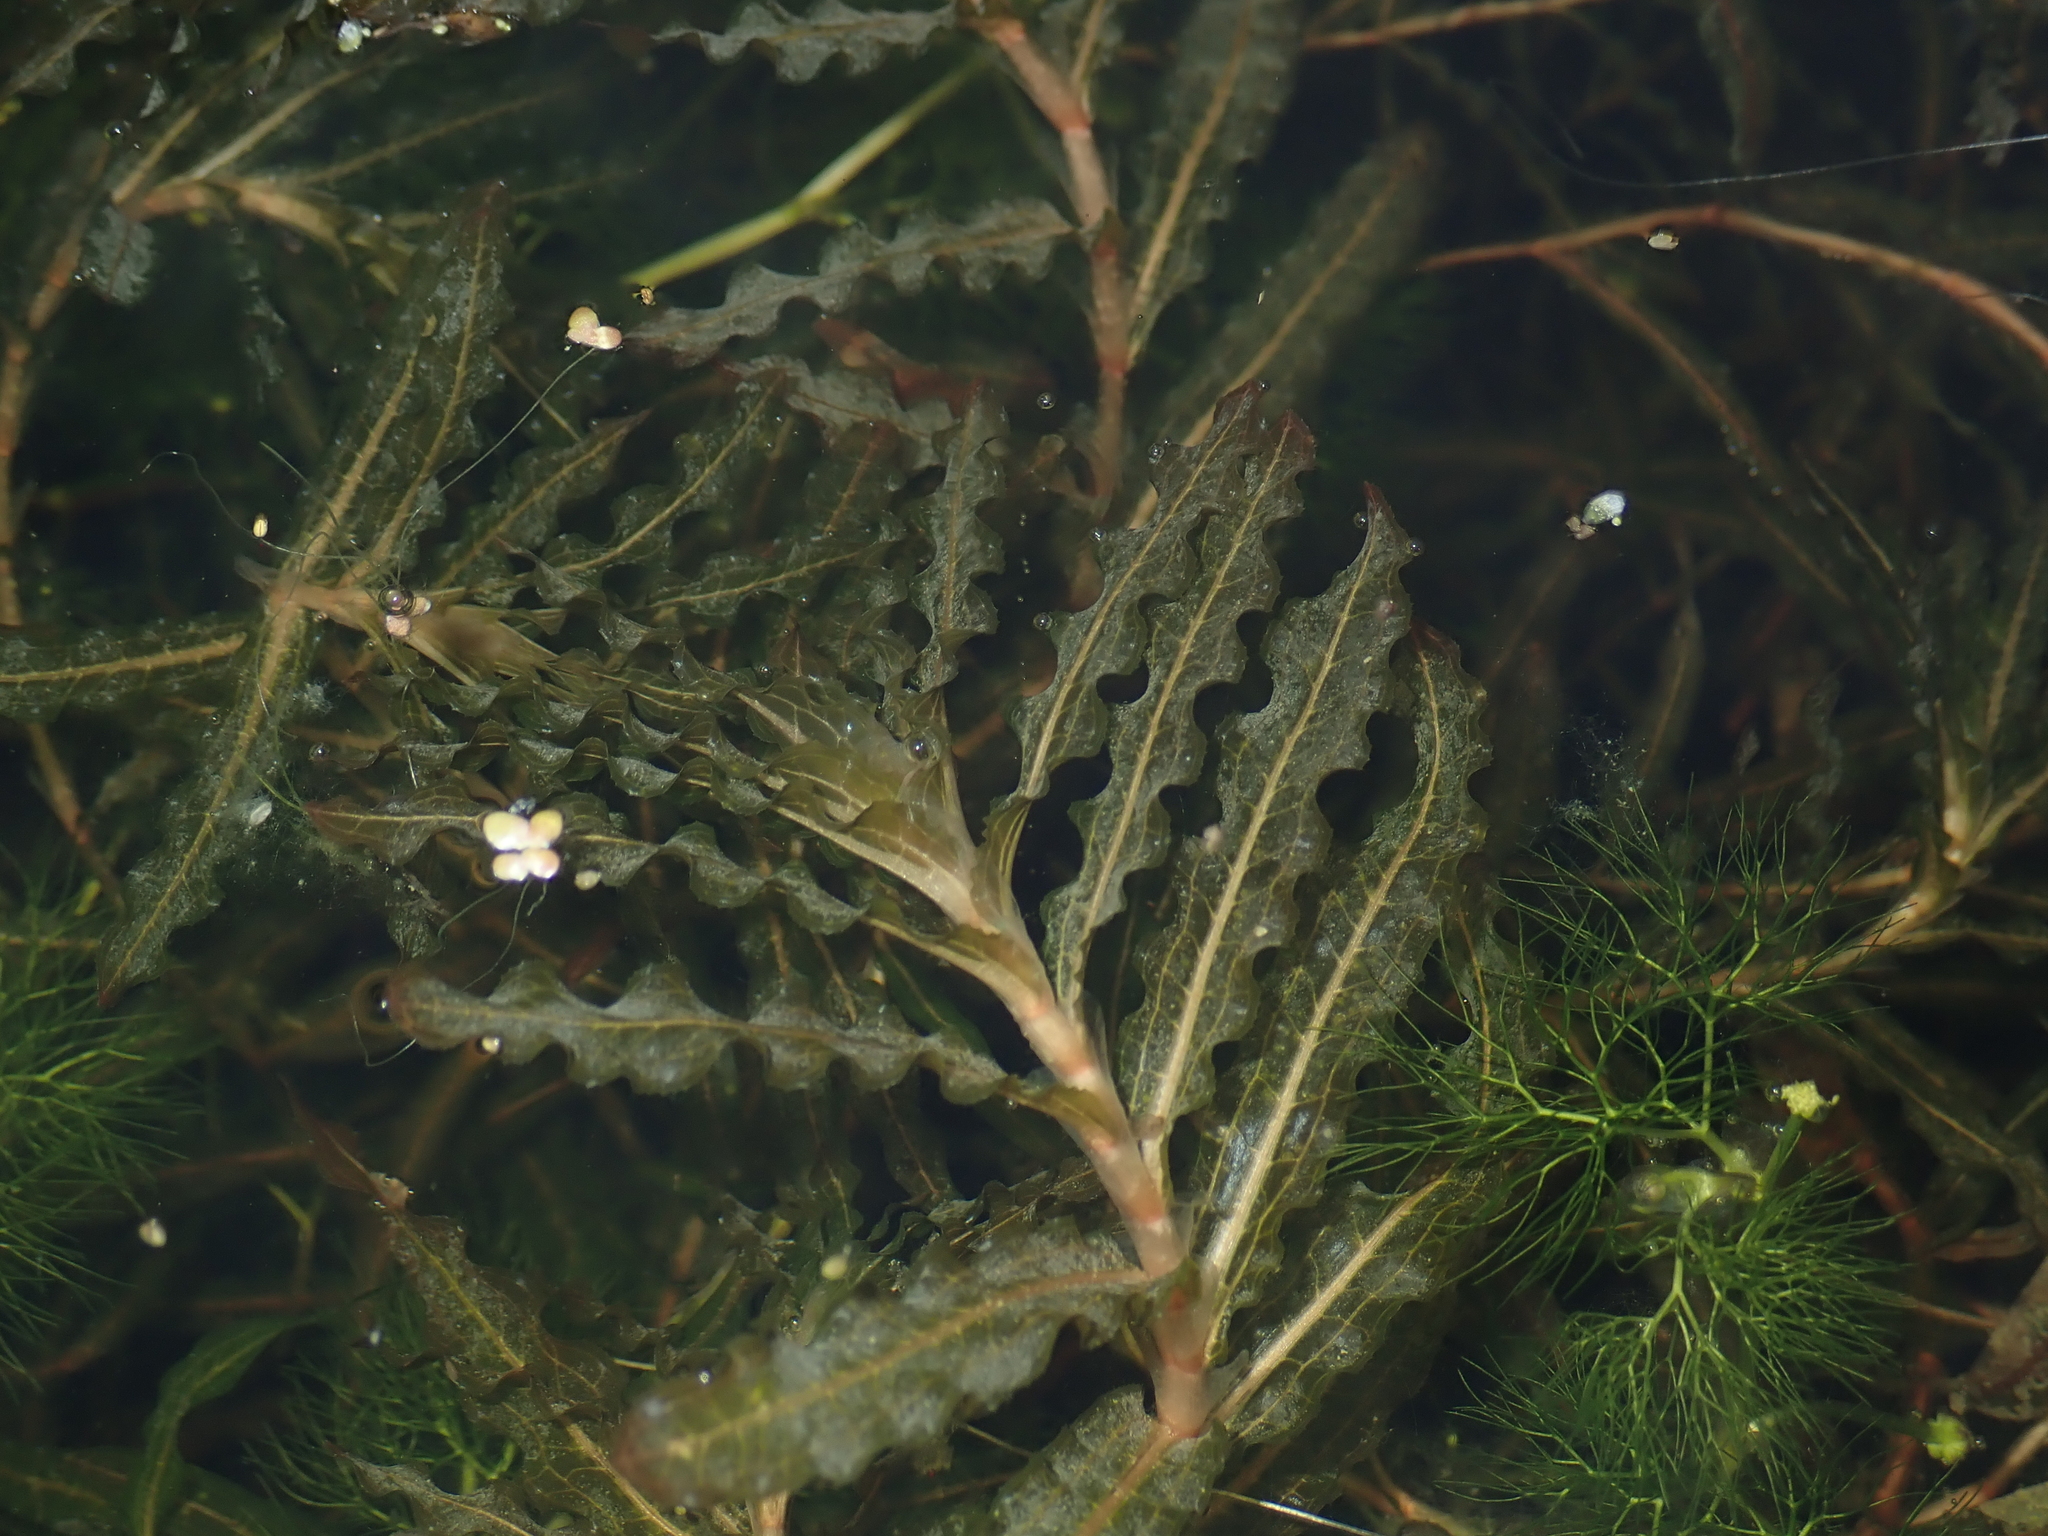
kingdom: Plantae
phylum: Tracheophyta
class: Liliopsida
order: Alismatales
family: Potamogetonaceae
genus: Potamogeton
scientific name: Potamogeton crispus
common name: Curled pondweed
